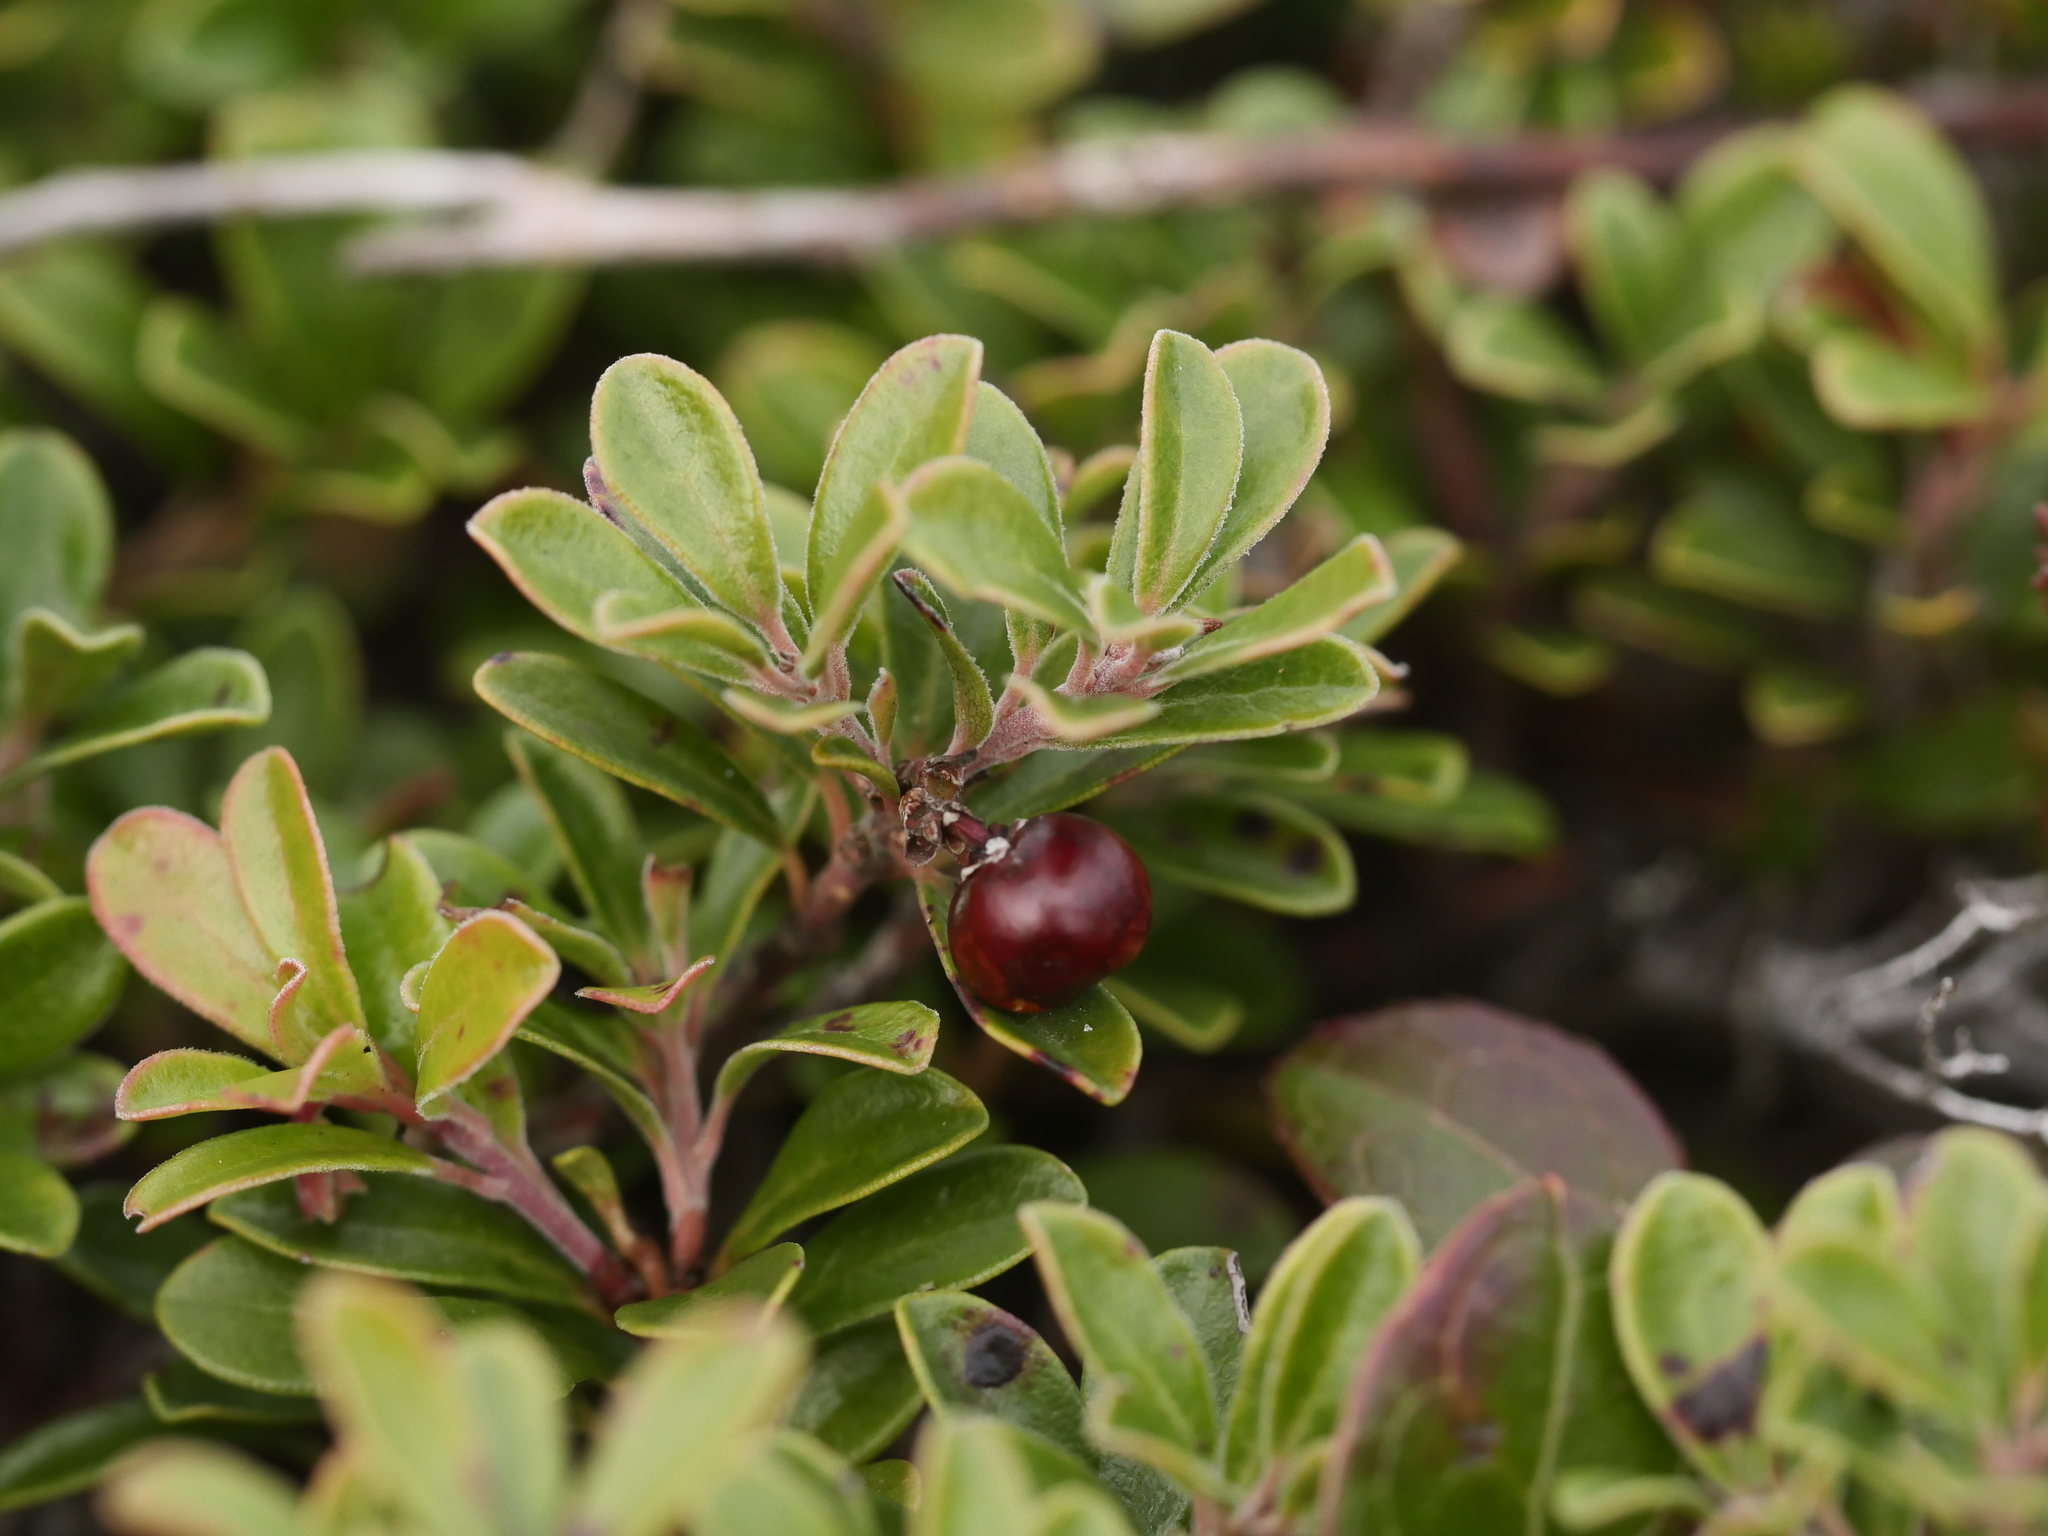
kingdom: Plantae
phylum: Tracheophyta
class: Magnoliopsida
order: Ericales
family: Ericaceae
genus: Arctostaphylos
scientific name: Arctostaphylos uva-ursi
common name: Bearberry
